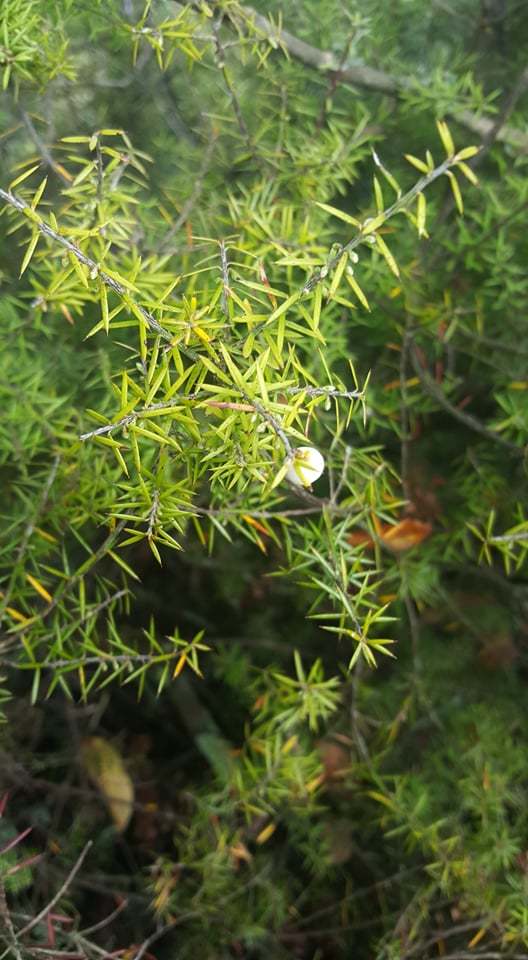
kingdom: Plantae
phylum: Tracheophyta
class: Magnoliopsida
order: Ericales
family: Ericaceae
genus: Leptecophylla
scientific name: Leptecophylla juniperina
